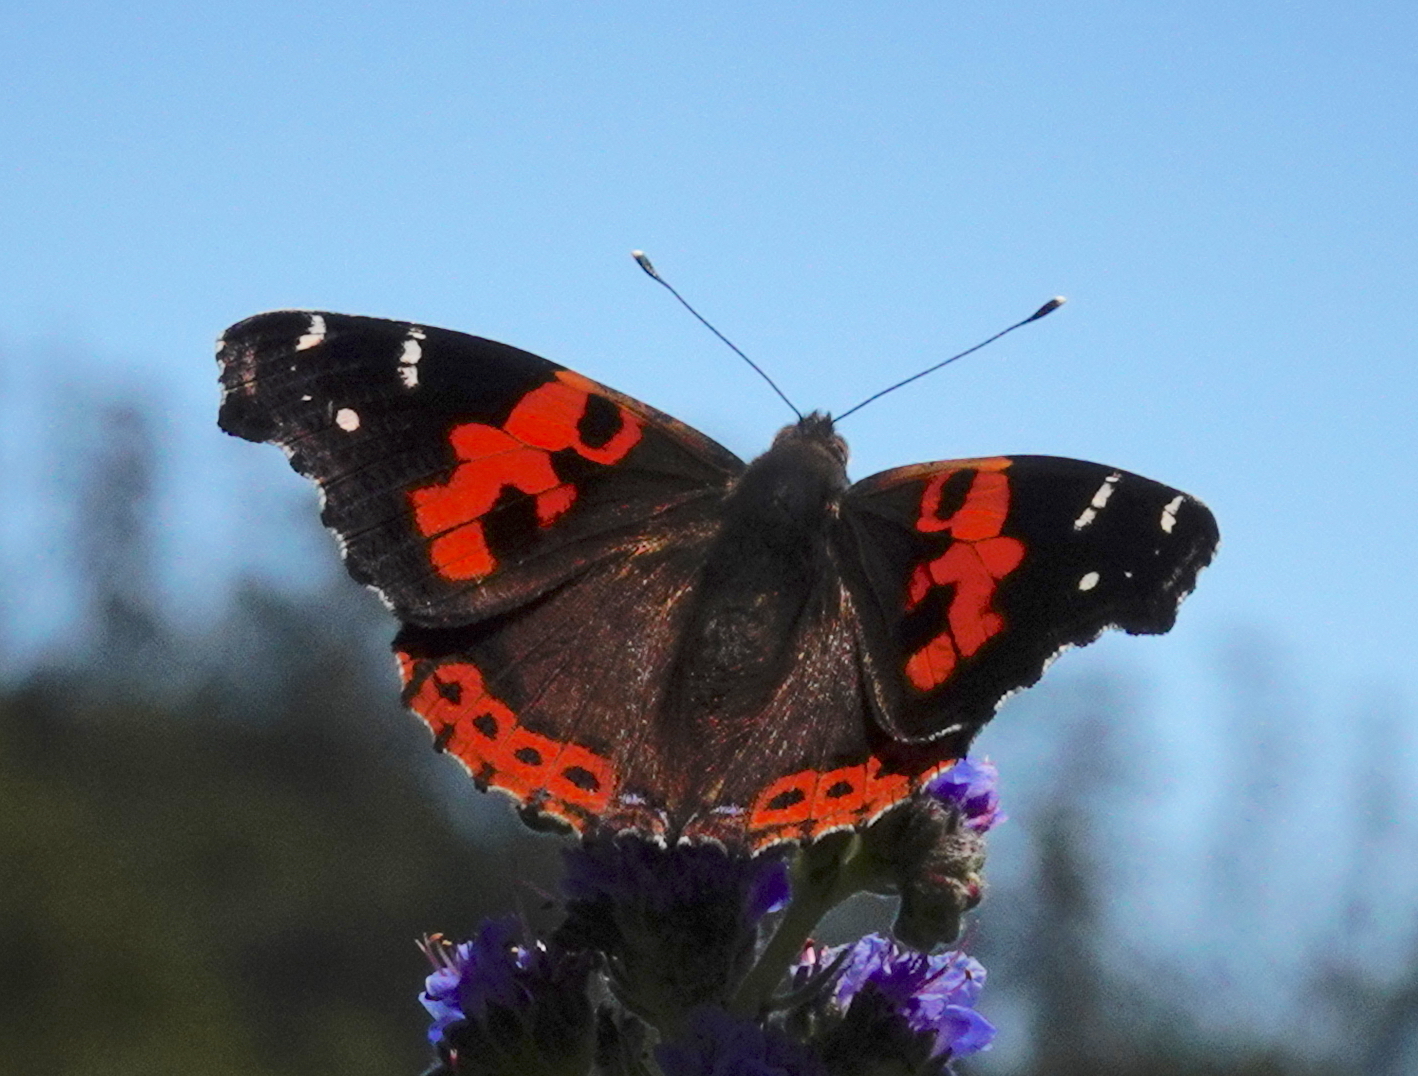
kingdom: Animalia
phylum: Arthropoda
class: Insecta
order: Lepidoptera
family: Nymphalidae
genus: Vanessa
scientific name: Vanessa vulcania
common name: Canary red admiral
